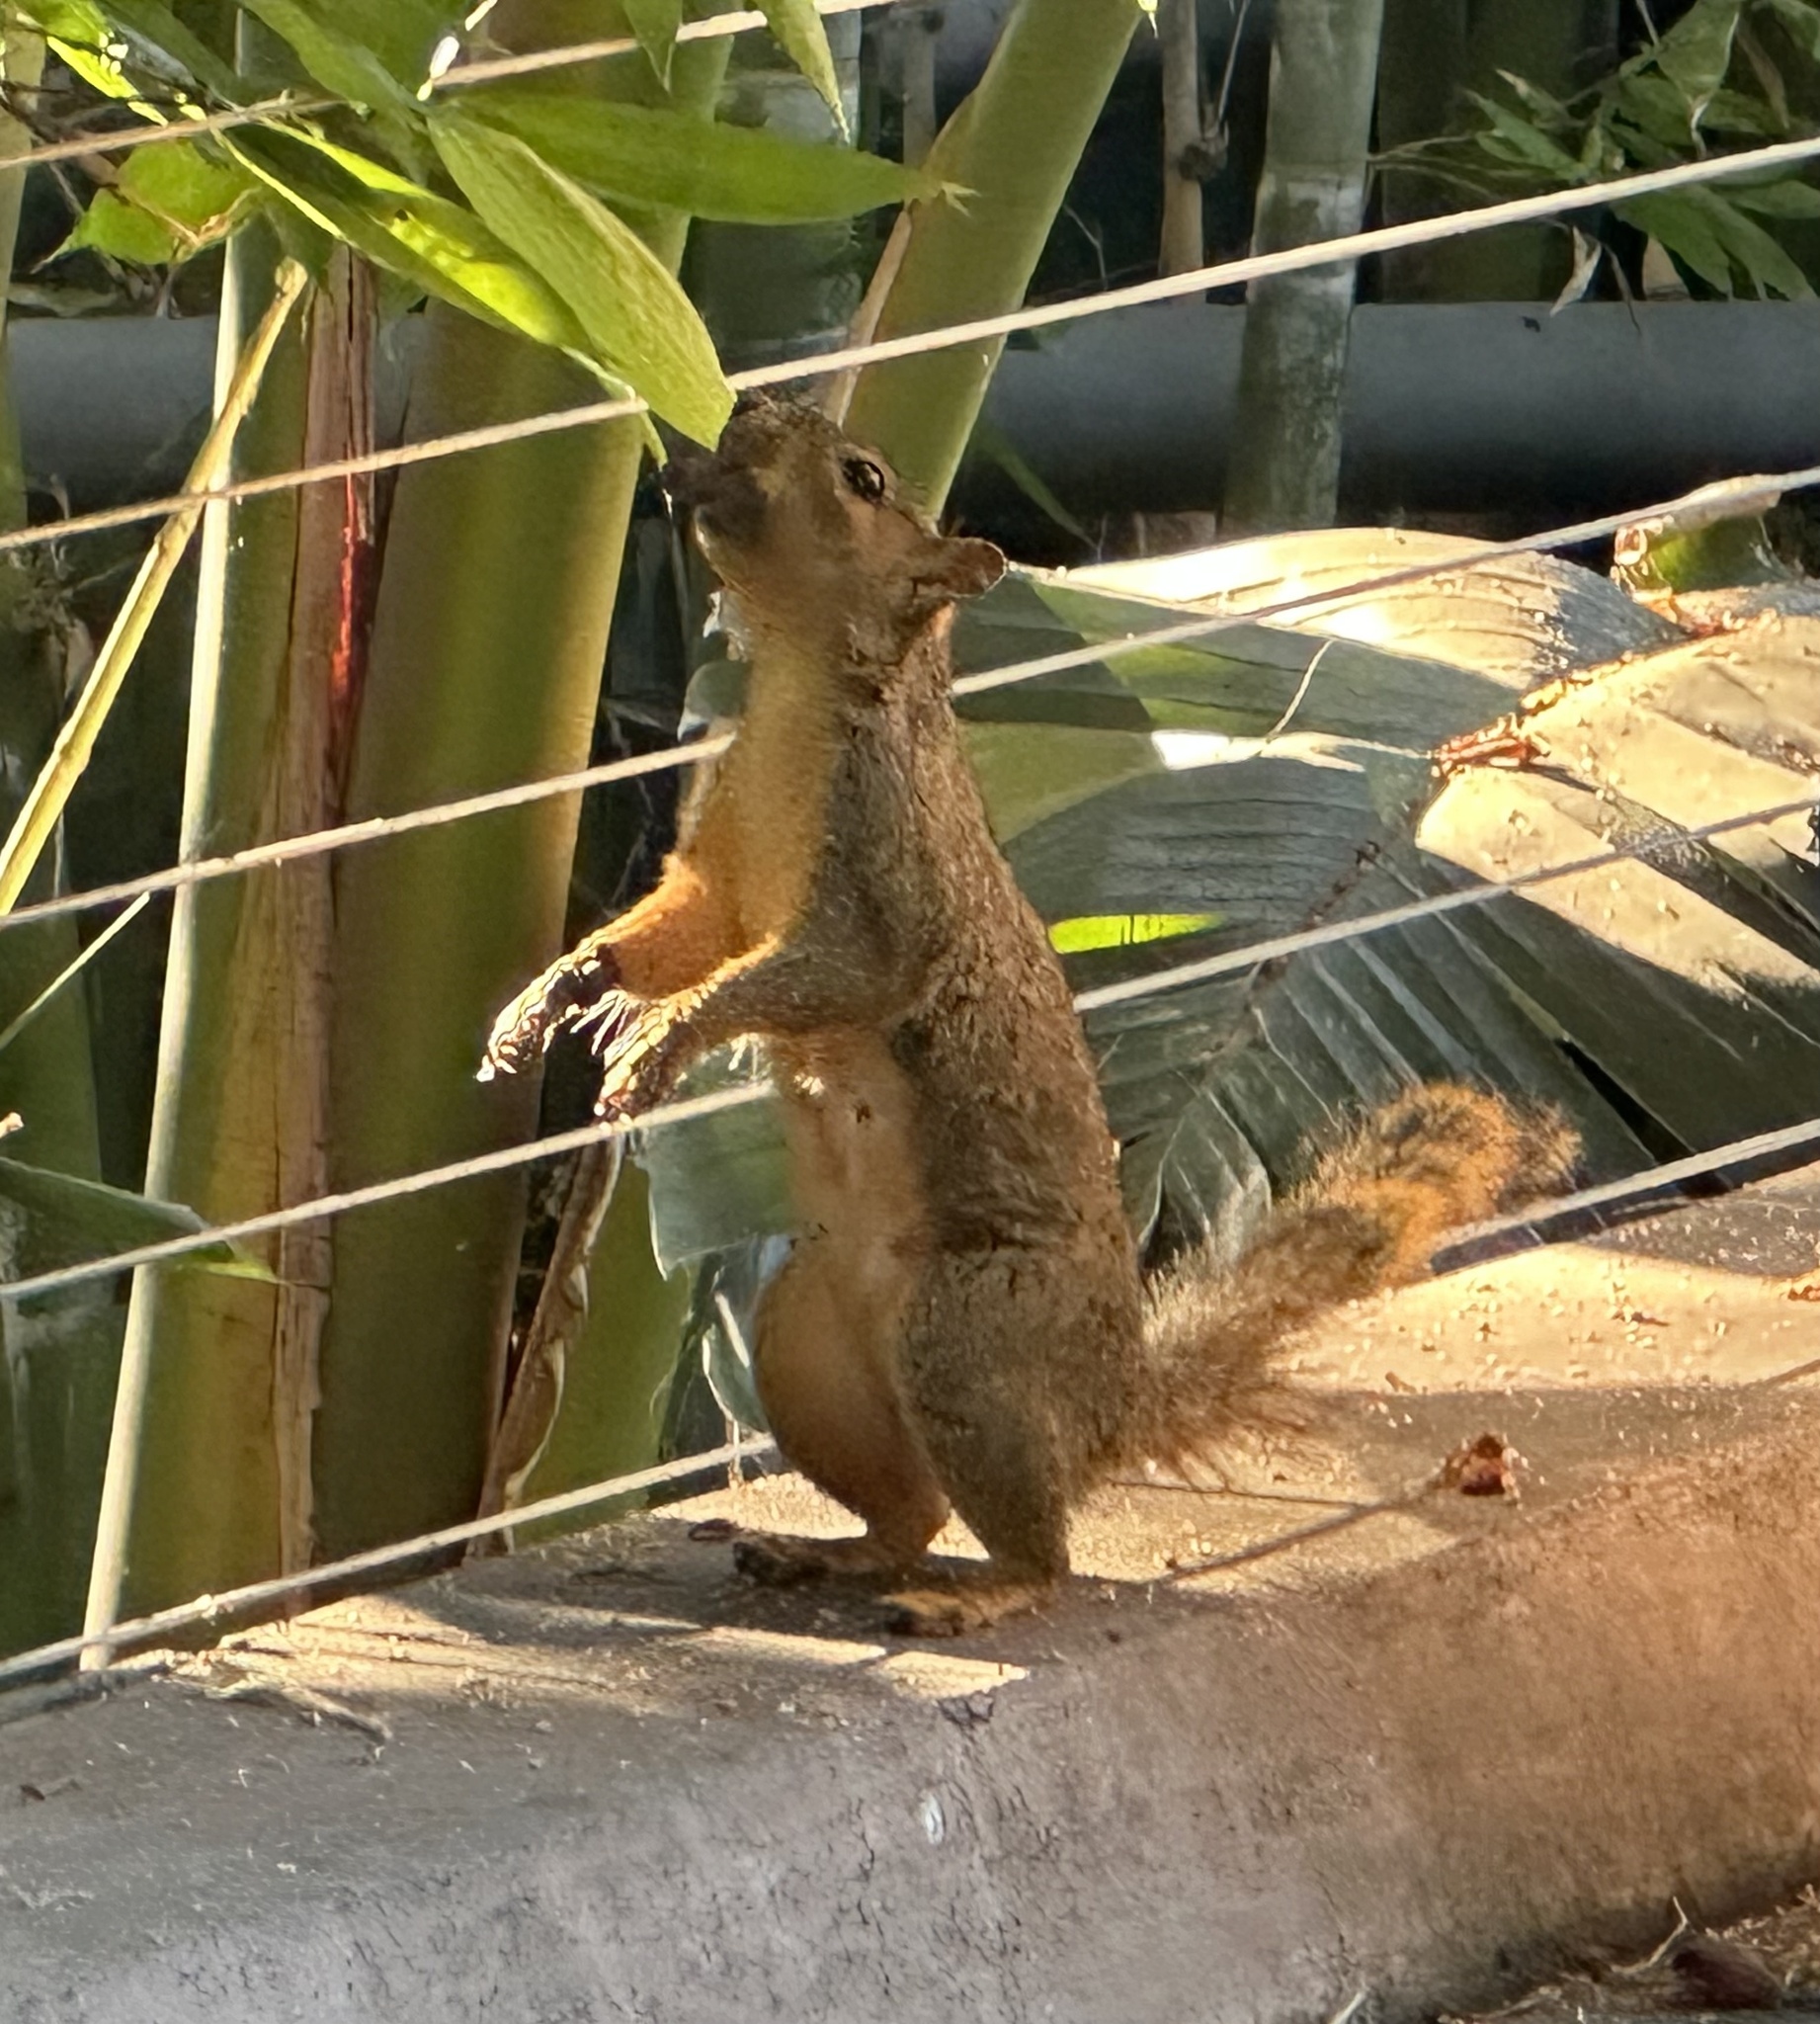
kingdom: Animalia
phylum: Chordata
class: Mammalia
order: Rodentia
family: Sciuridae
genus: Sciurus
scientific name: Sciurus niger
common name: Fox squirrel
